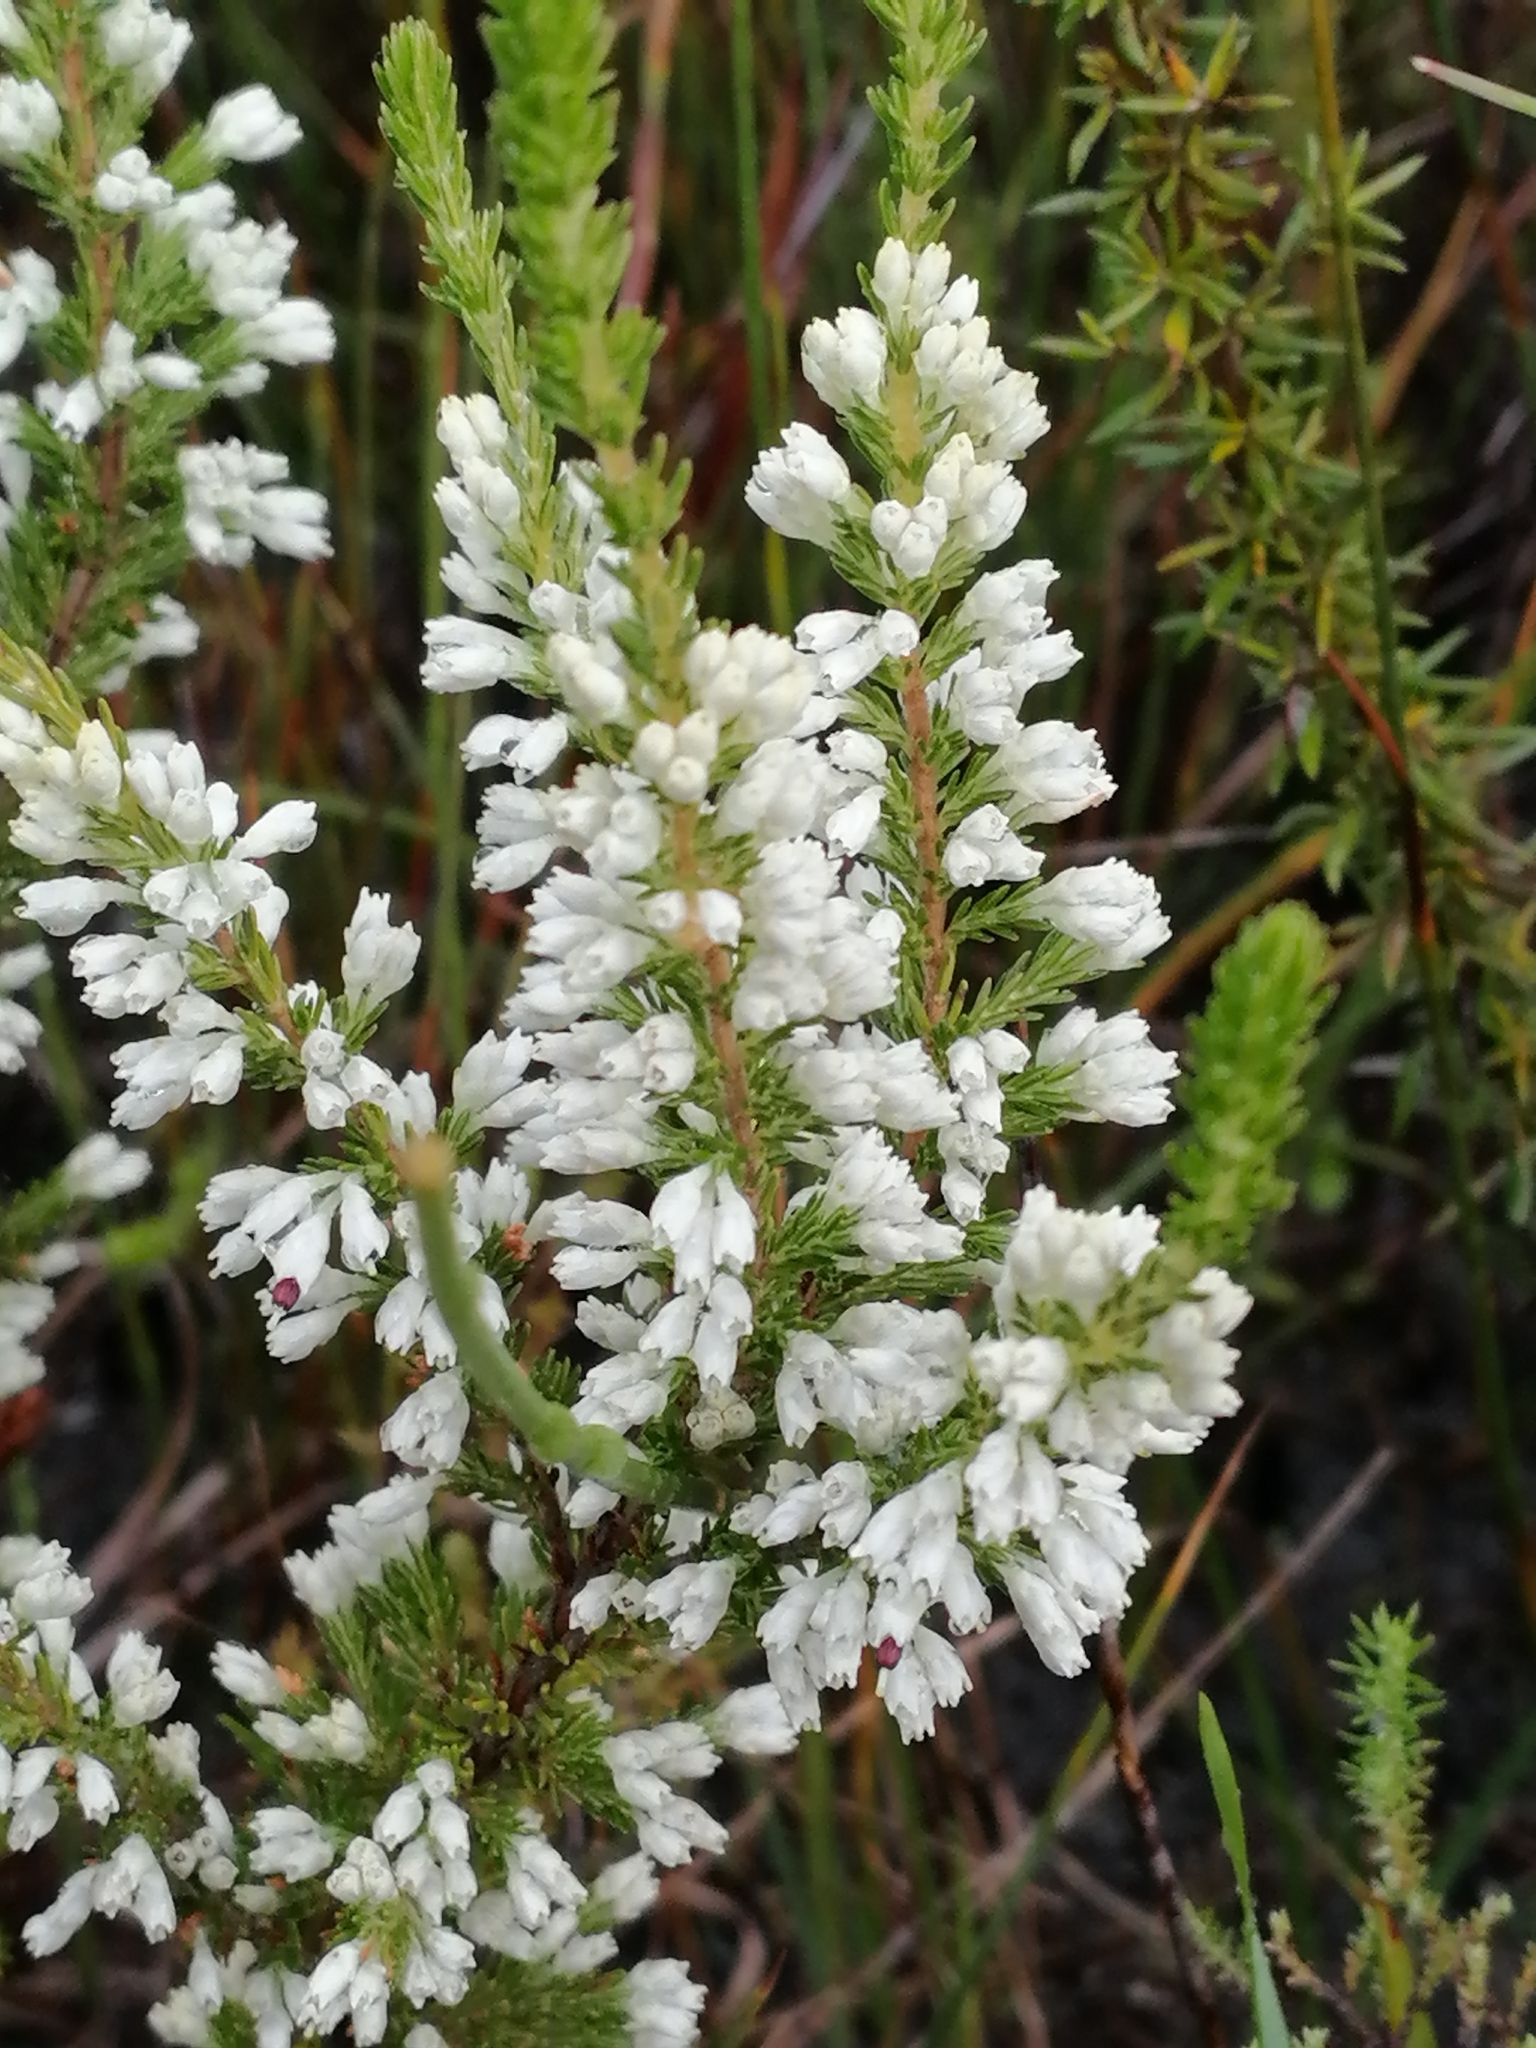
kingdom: Plantae
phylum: Tracheophyta
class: Magnoliopsida
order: Ericales
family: Ericaceae
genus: Erica
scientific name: Erica imbricata
